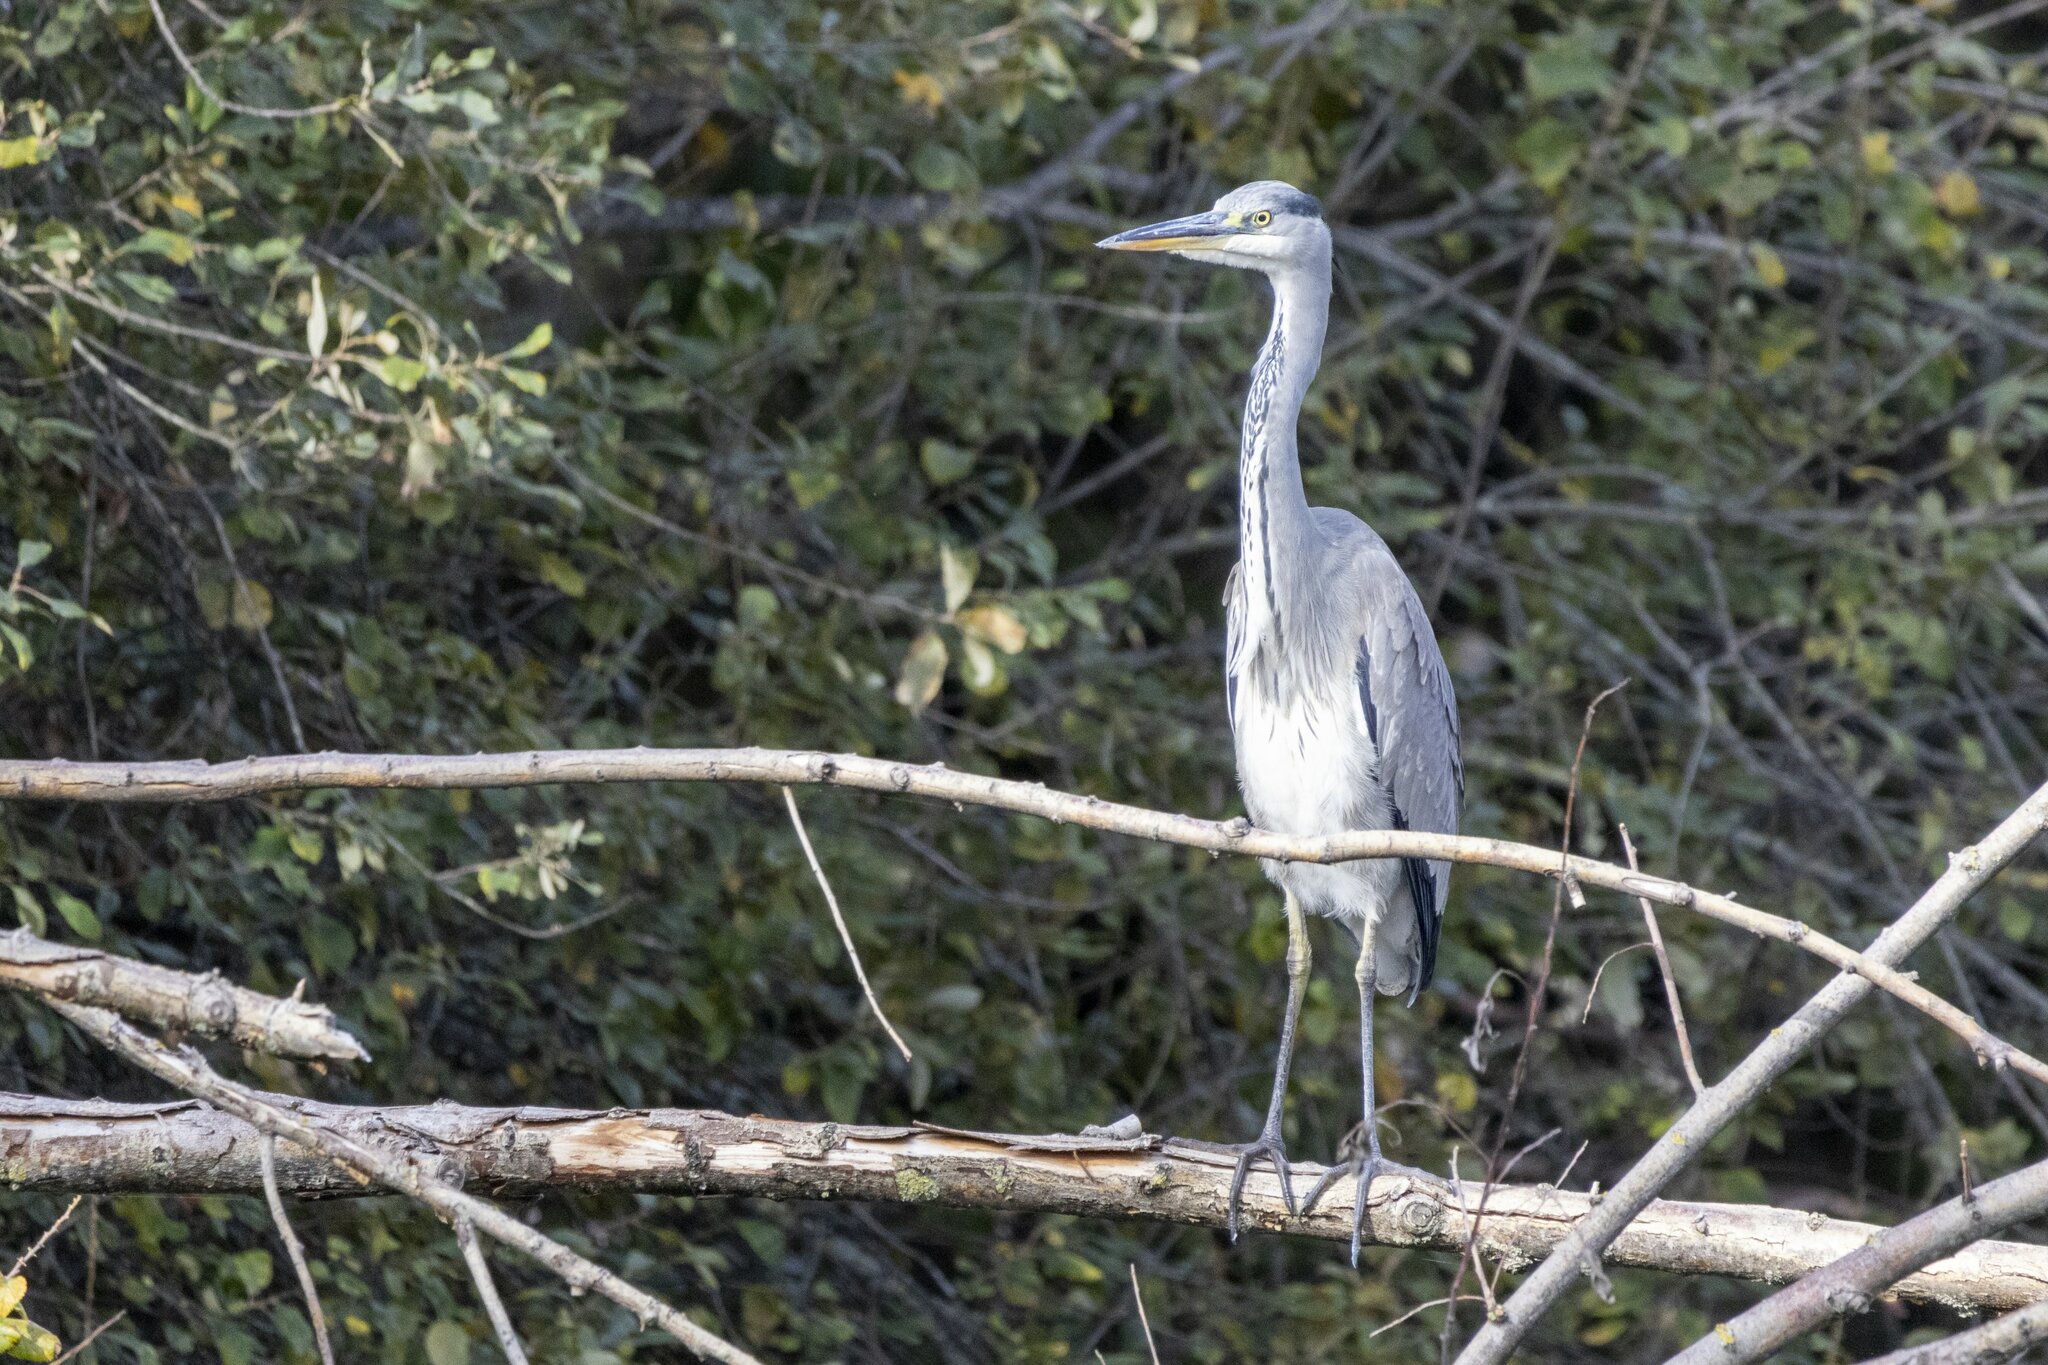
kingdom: Animalia
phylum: Chordata
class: Aves
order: Pelecaniformes
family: Ardeidae
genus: Ardea
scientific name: Ardea cinerea
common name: Grey heron
